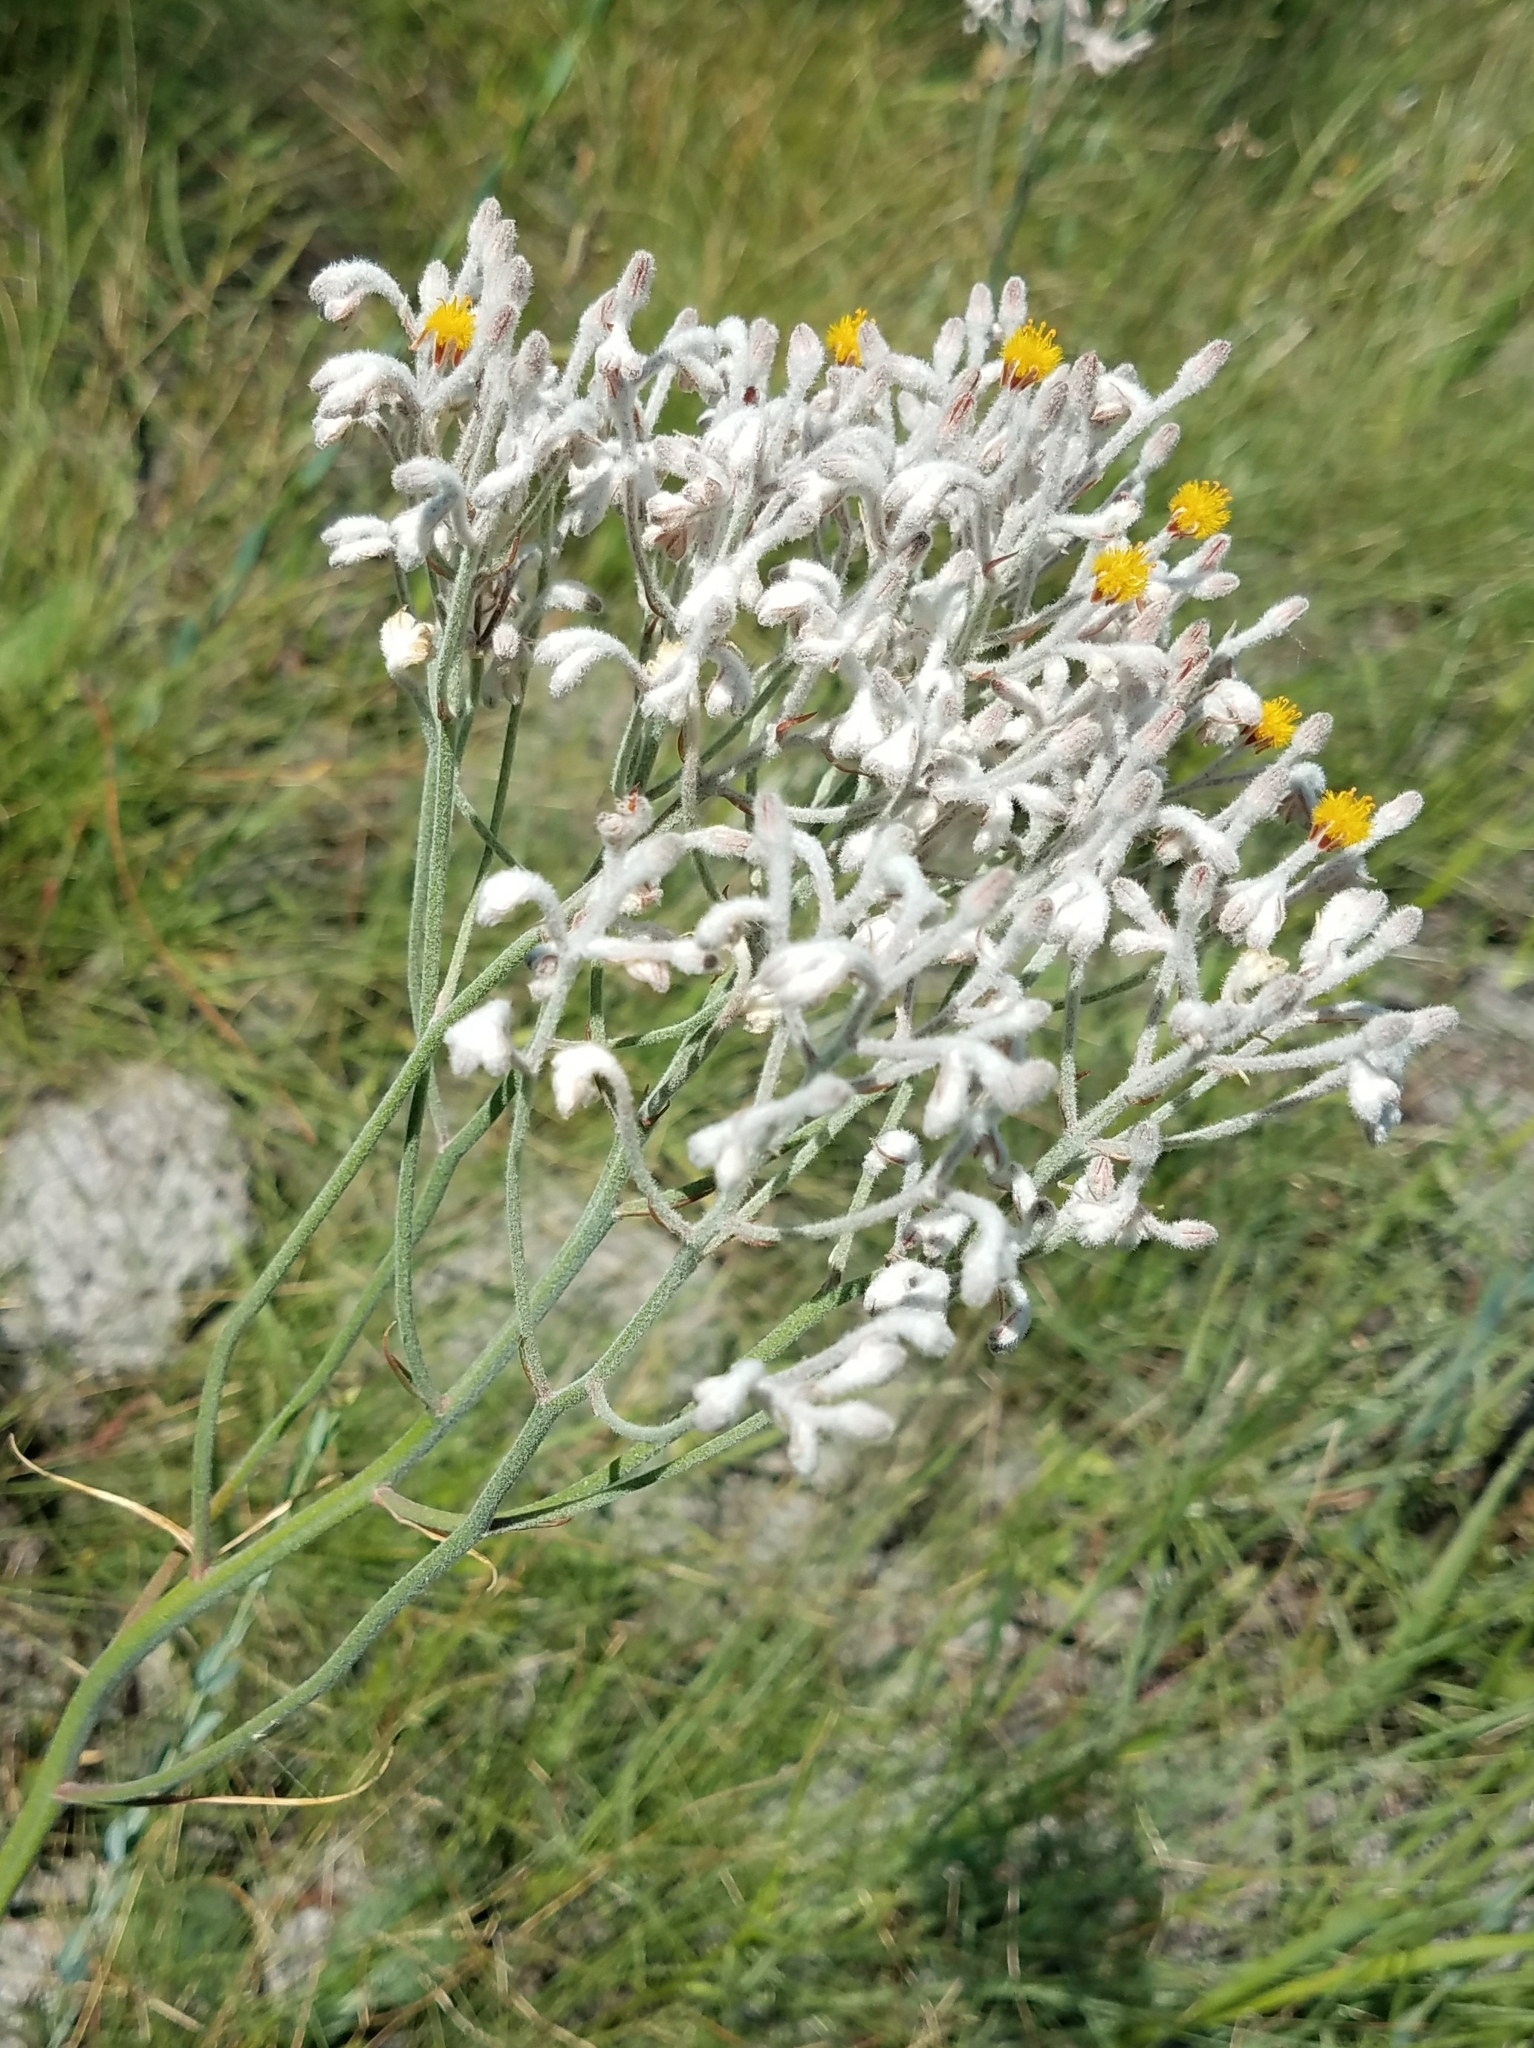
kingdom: Plantae
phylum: Tracheophyta
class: Liliopsida
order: Dioscoreales
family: Nartheciaceae
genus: Lophiola
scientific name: Lophiola aurea
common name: Golden-crest
